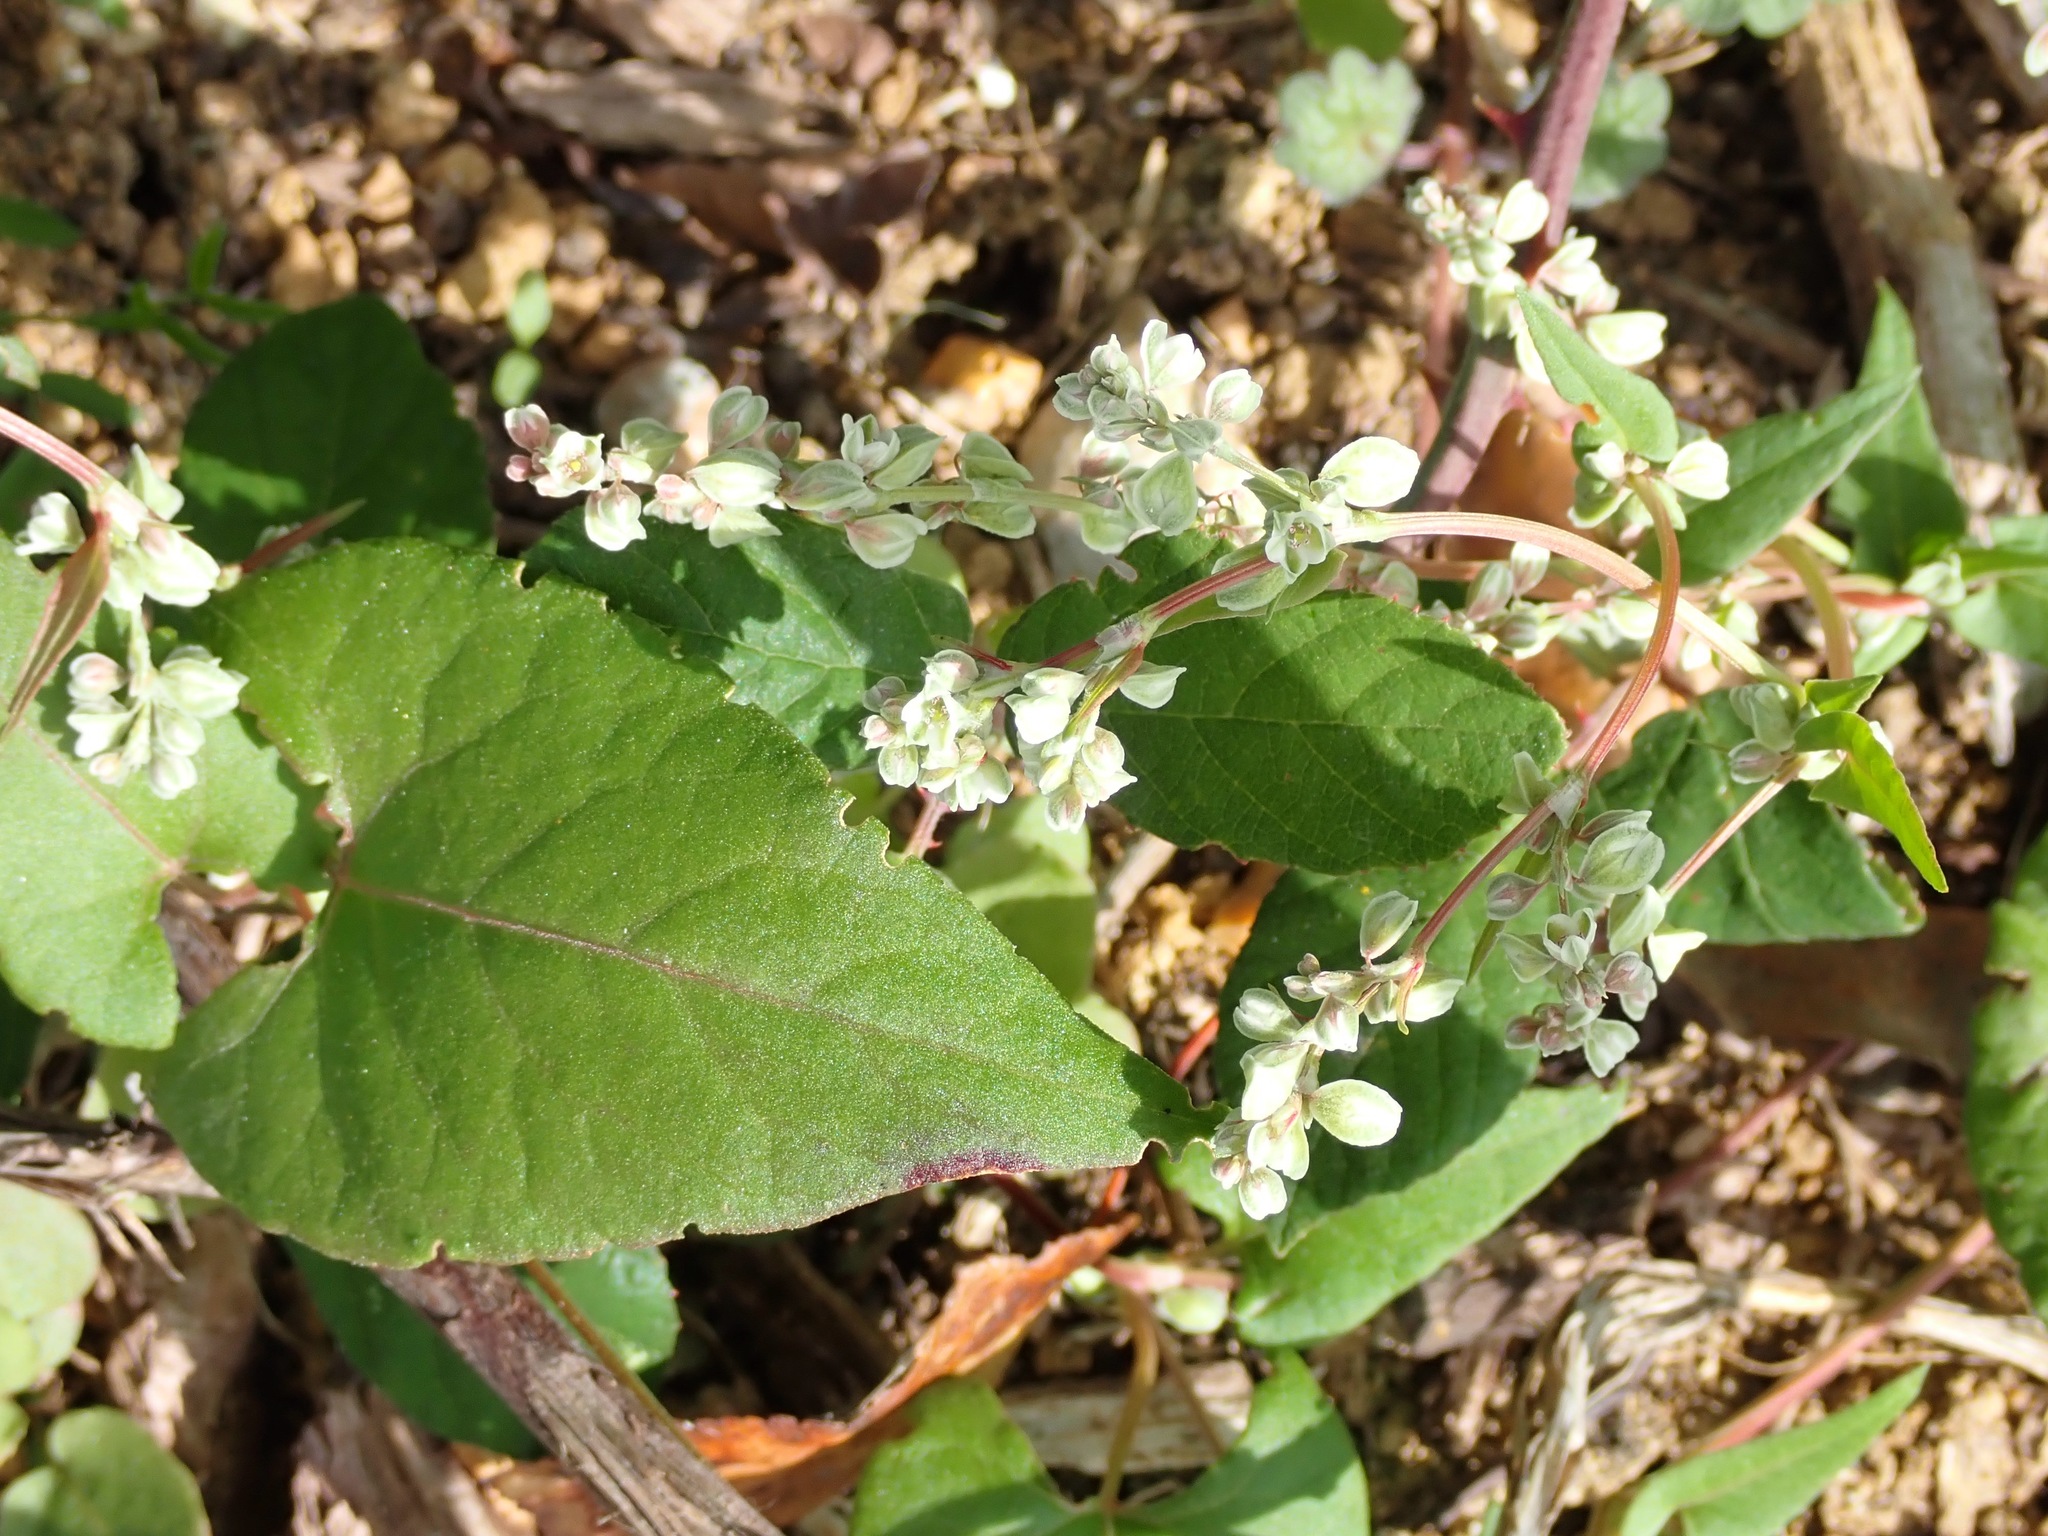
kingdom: Plantae
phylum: Tracheophyta
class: Magnoliopsida
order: Caryophyllales
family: Polygonaceae
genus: Fallopia
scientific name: Fallopia convolvulus
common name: Black bindweed
